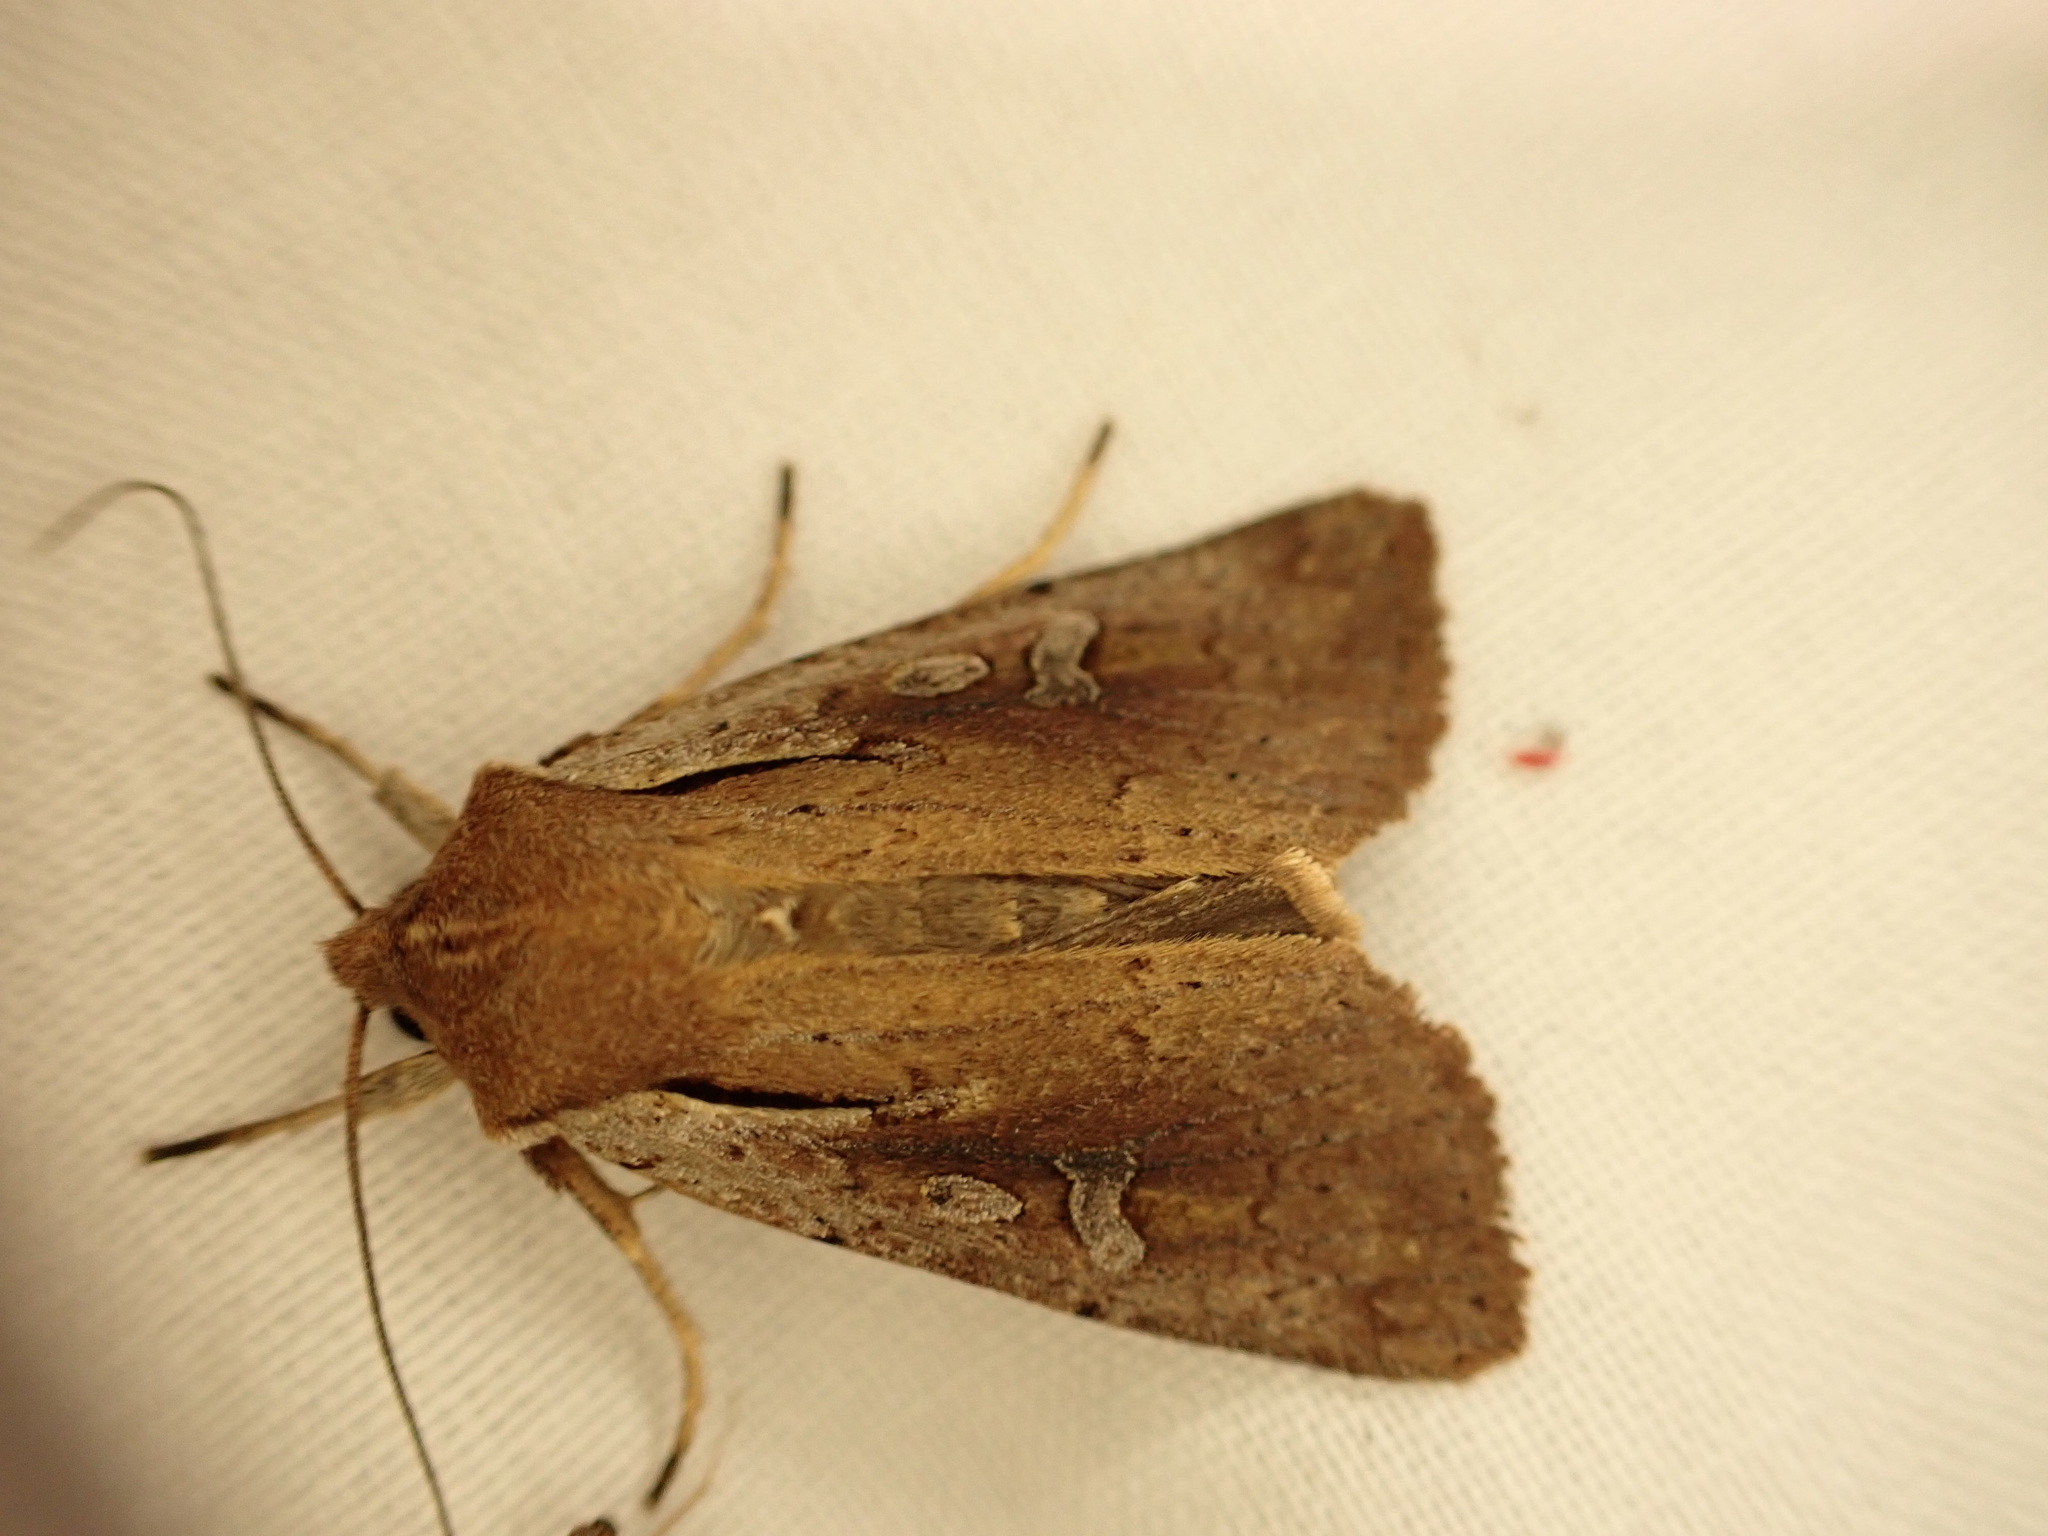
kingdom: Animalia
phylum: Arthropoda
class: Insecta
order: Lepidoptera
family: Noctuidae
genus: Ichneutica
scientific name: Ichneutica atristriga
